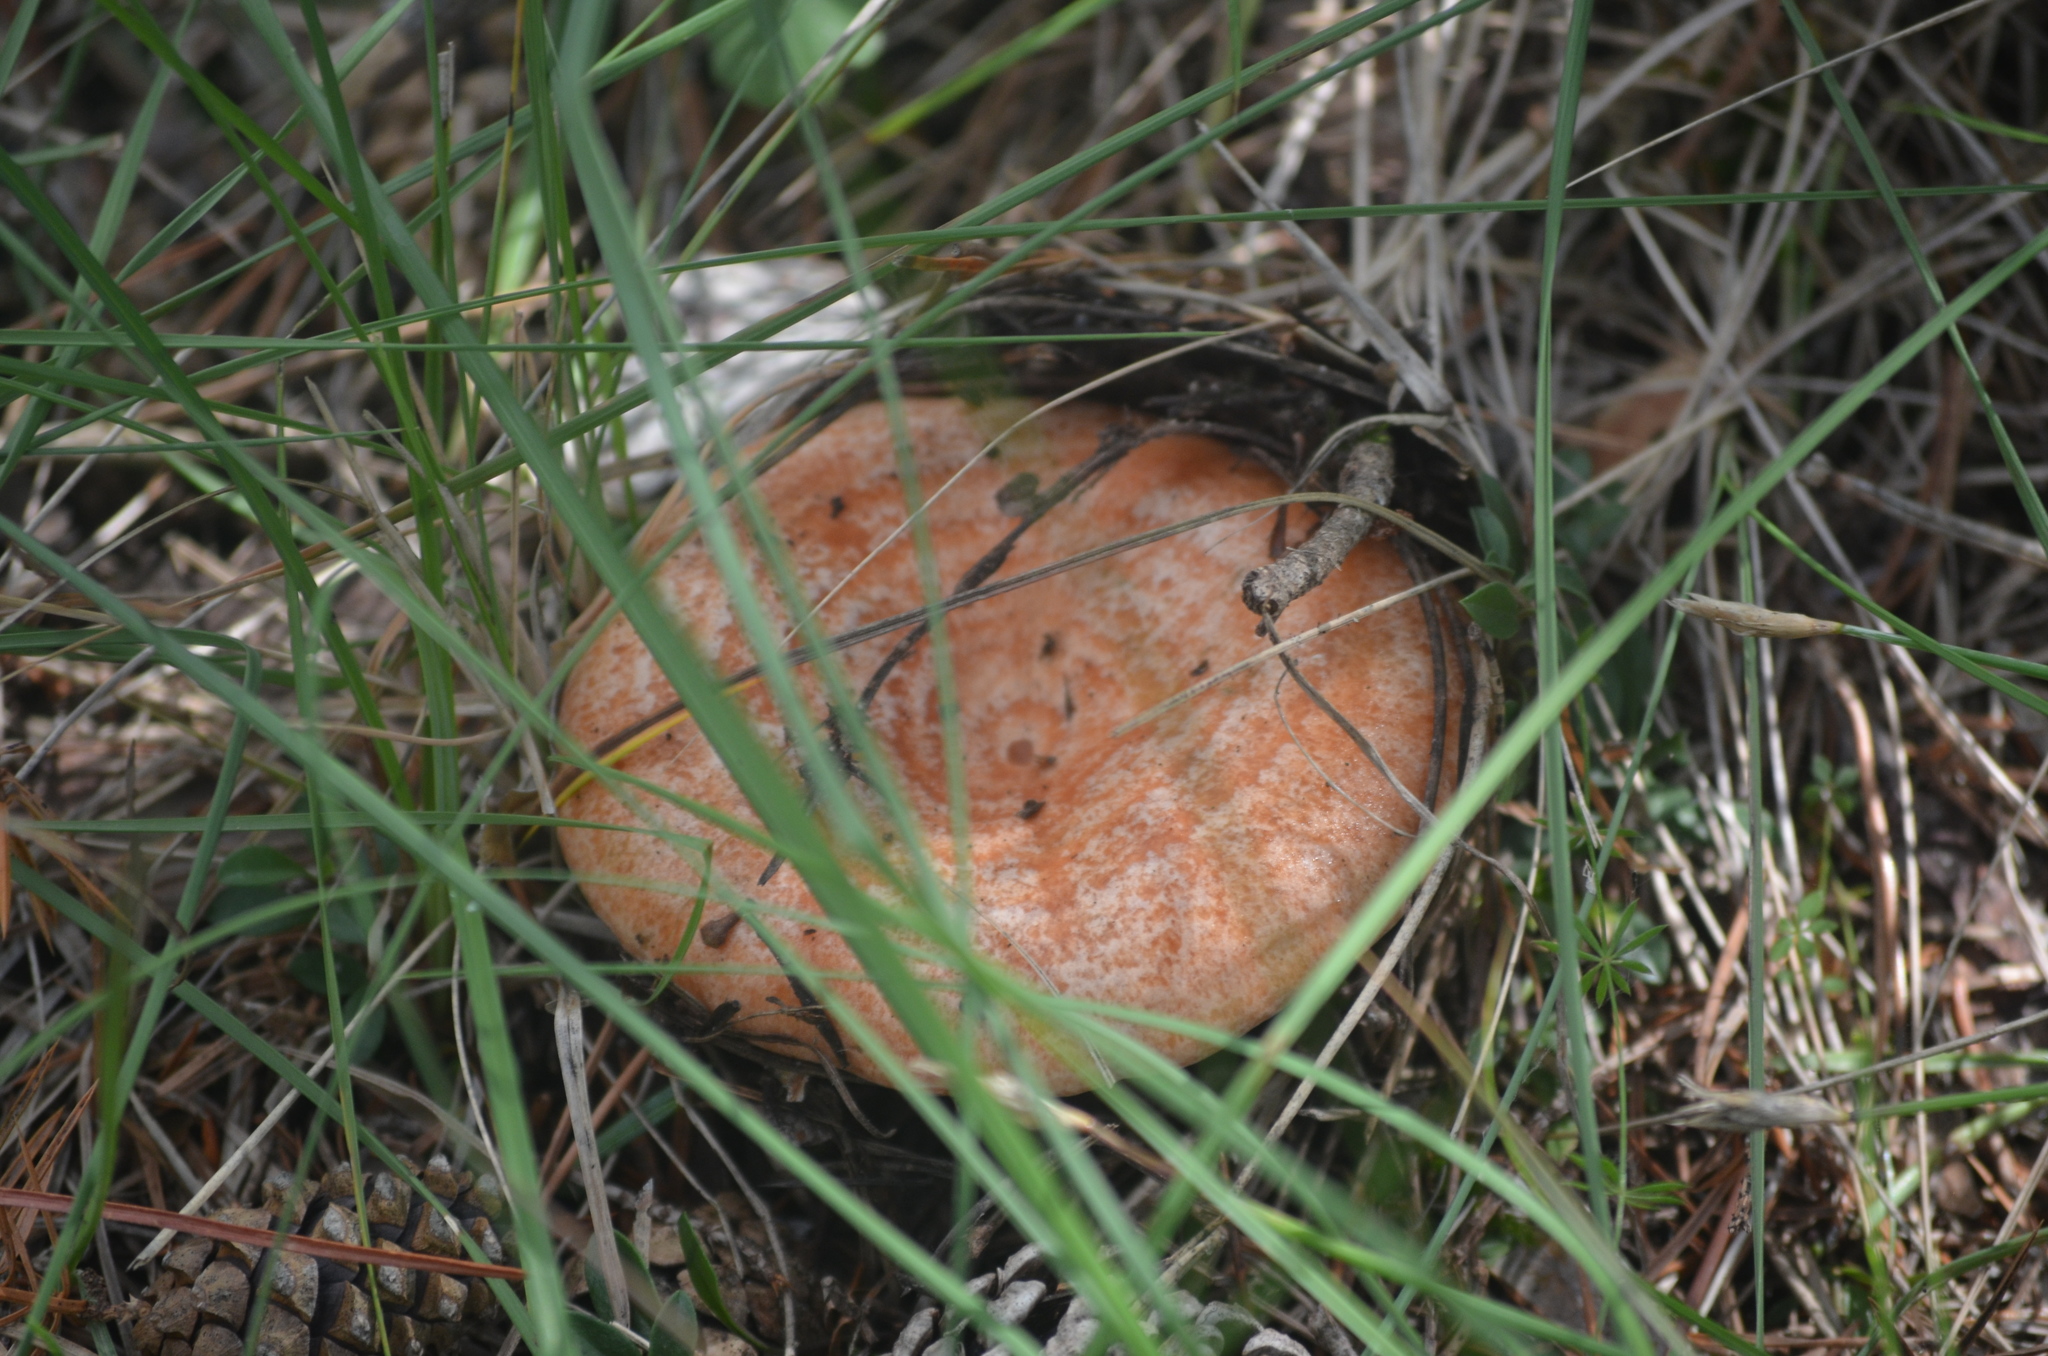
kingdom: Fungi
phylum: Basidiomycota
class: Agaricomycetes
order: Russulales
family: Russulaceae
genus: Lactarius
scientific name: Lactarius deliciosus
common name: Saffron milk-cap
